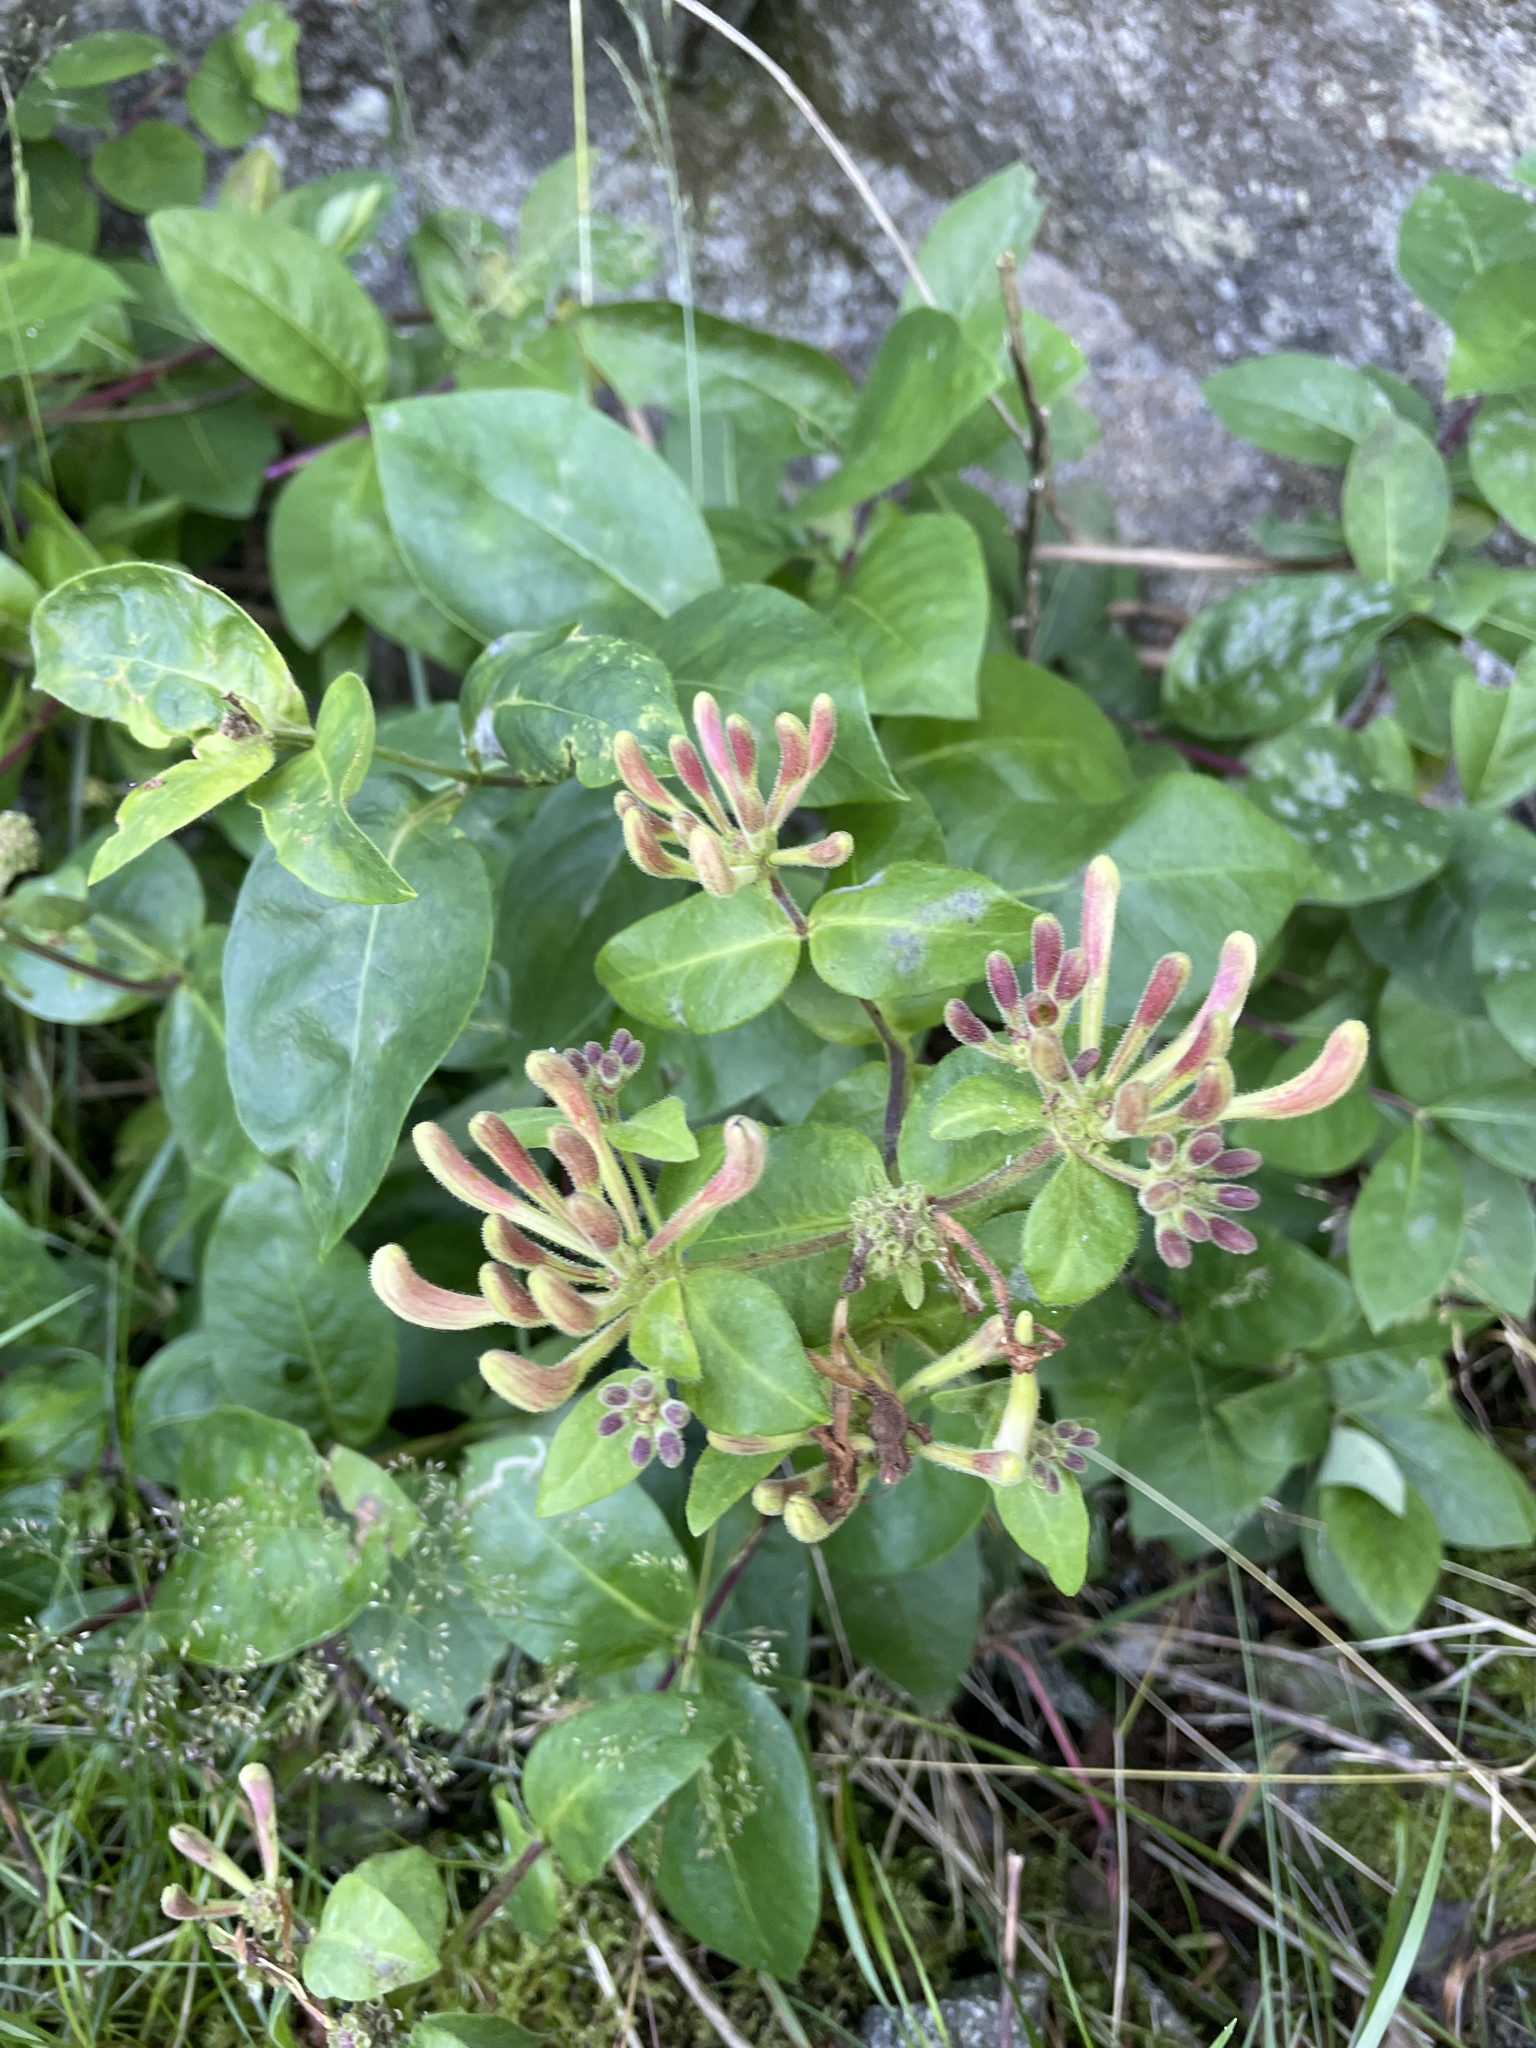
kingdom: Plantae
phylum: Tracheophyta
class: Magnoliopsida
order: Dipsacales
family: Caprifoliaceae
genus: Lonicera
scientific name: Lonicera periclymenum
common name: European honeysuckle
